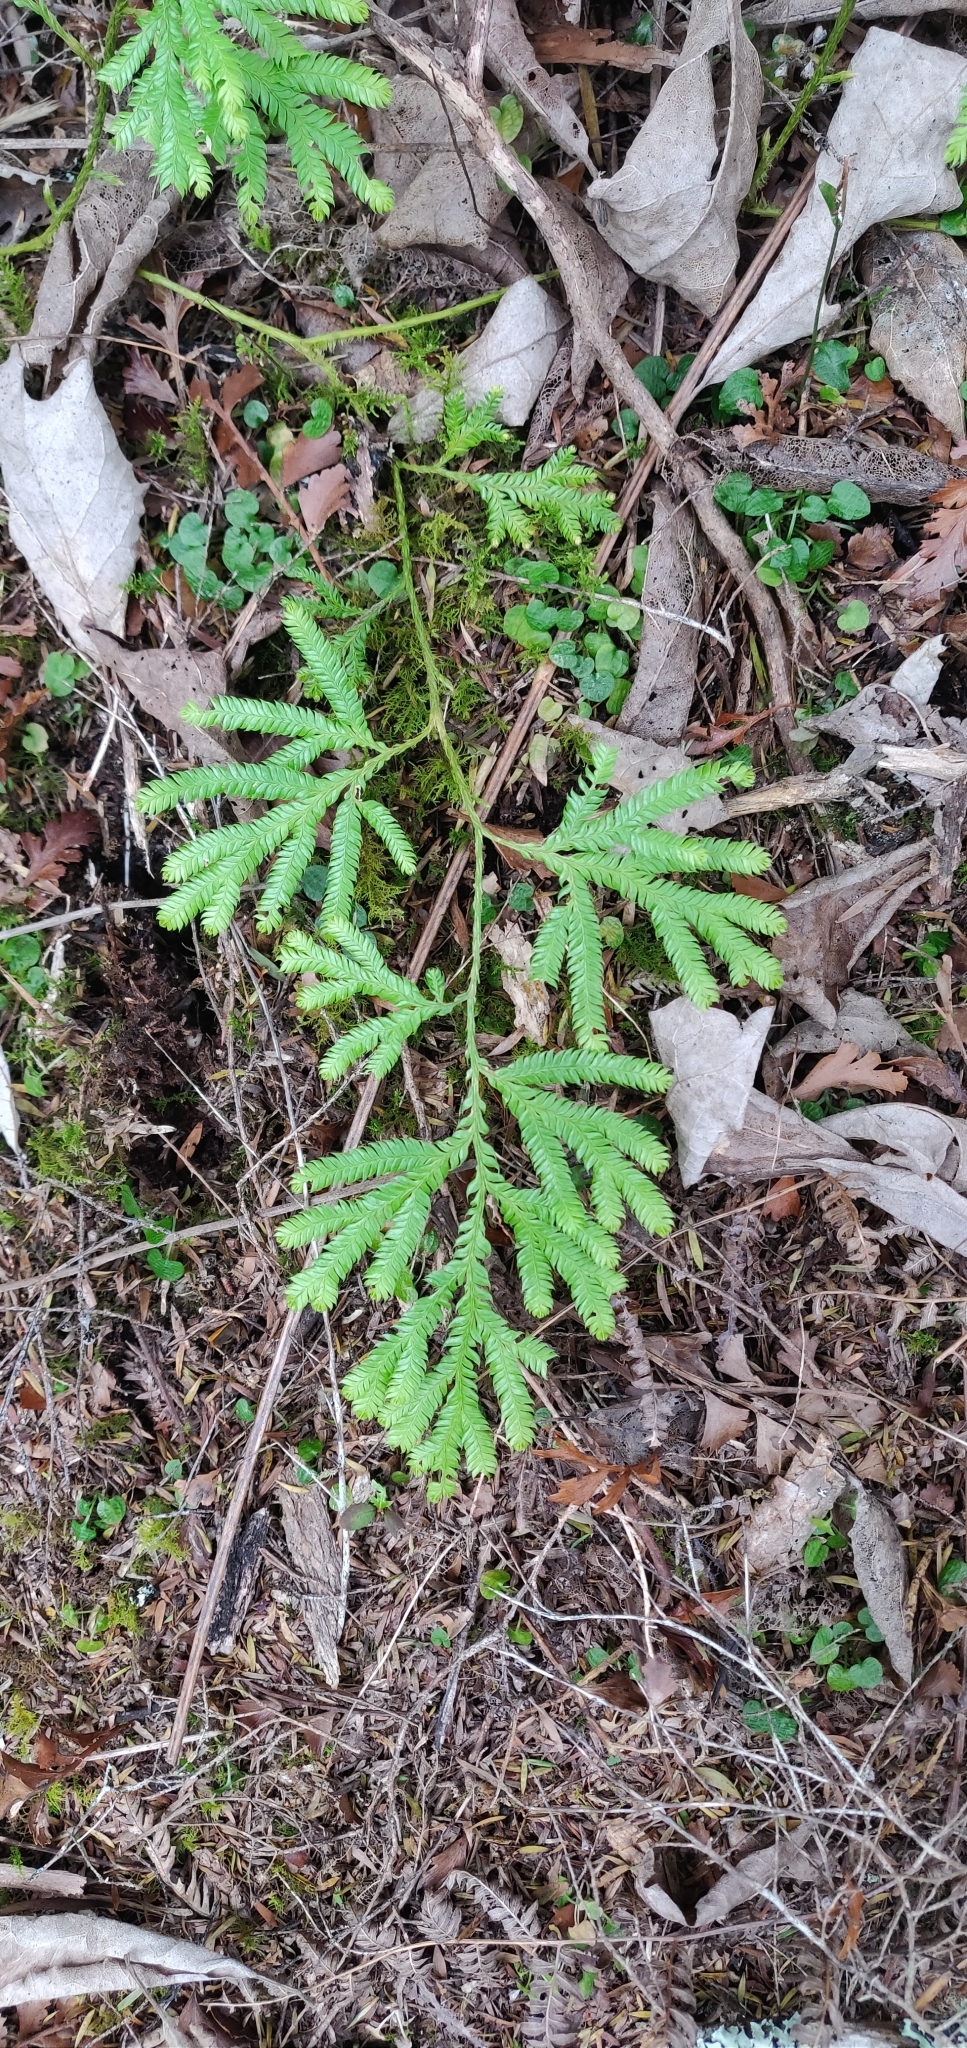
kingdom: Plantae
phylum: Tracheophyta
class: Lycopodiopsida
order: Lycopodiales
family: Lycopodiaceae
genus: Lycopodium
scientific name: Lycopodium volubile
